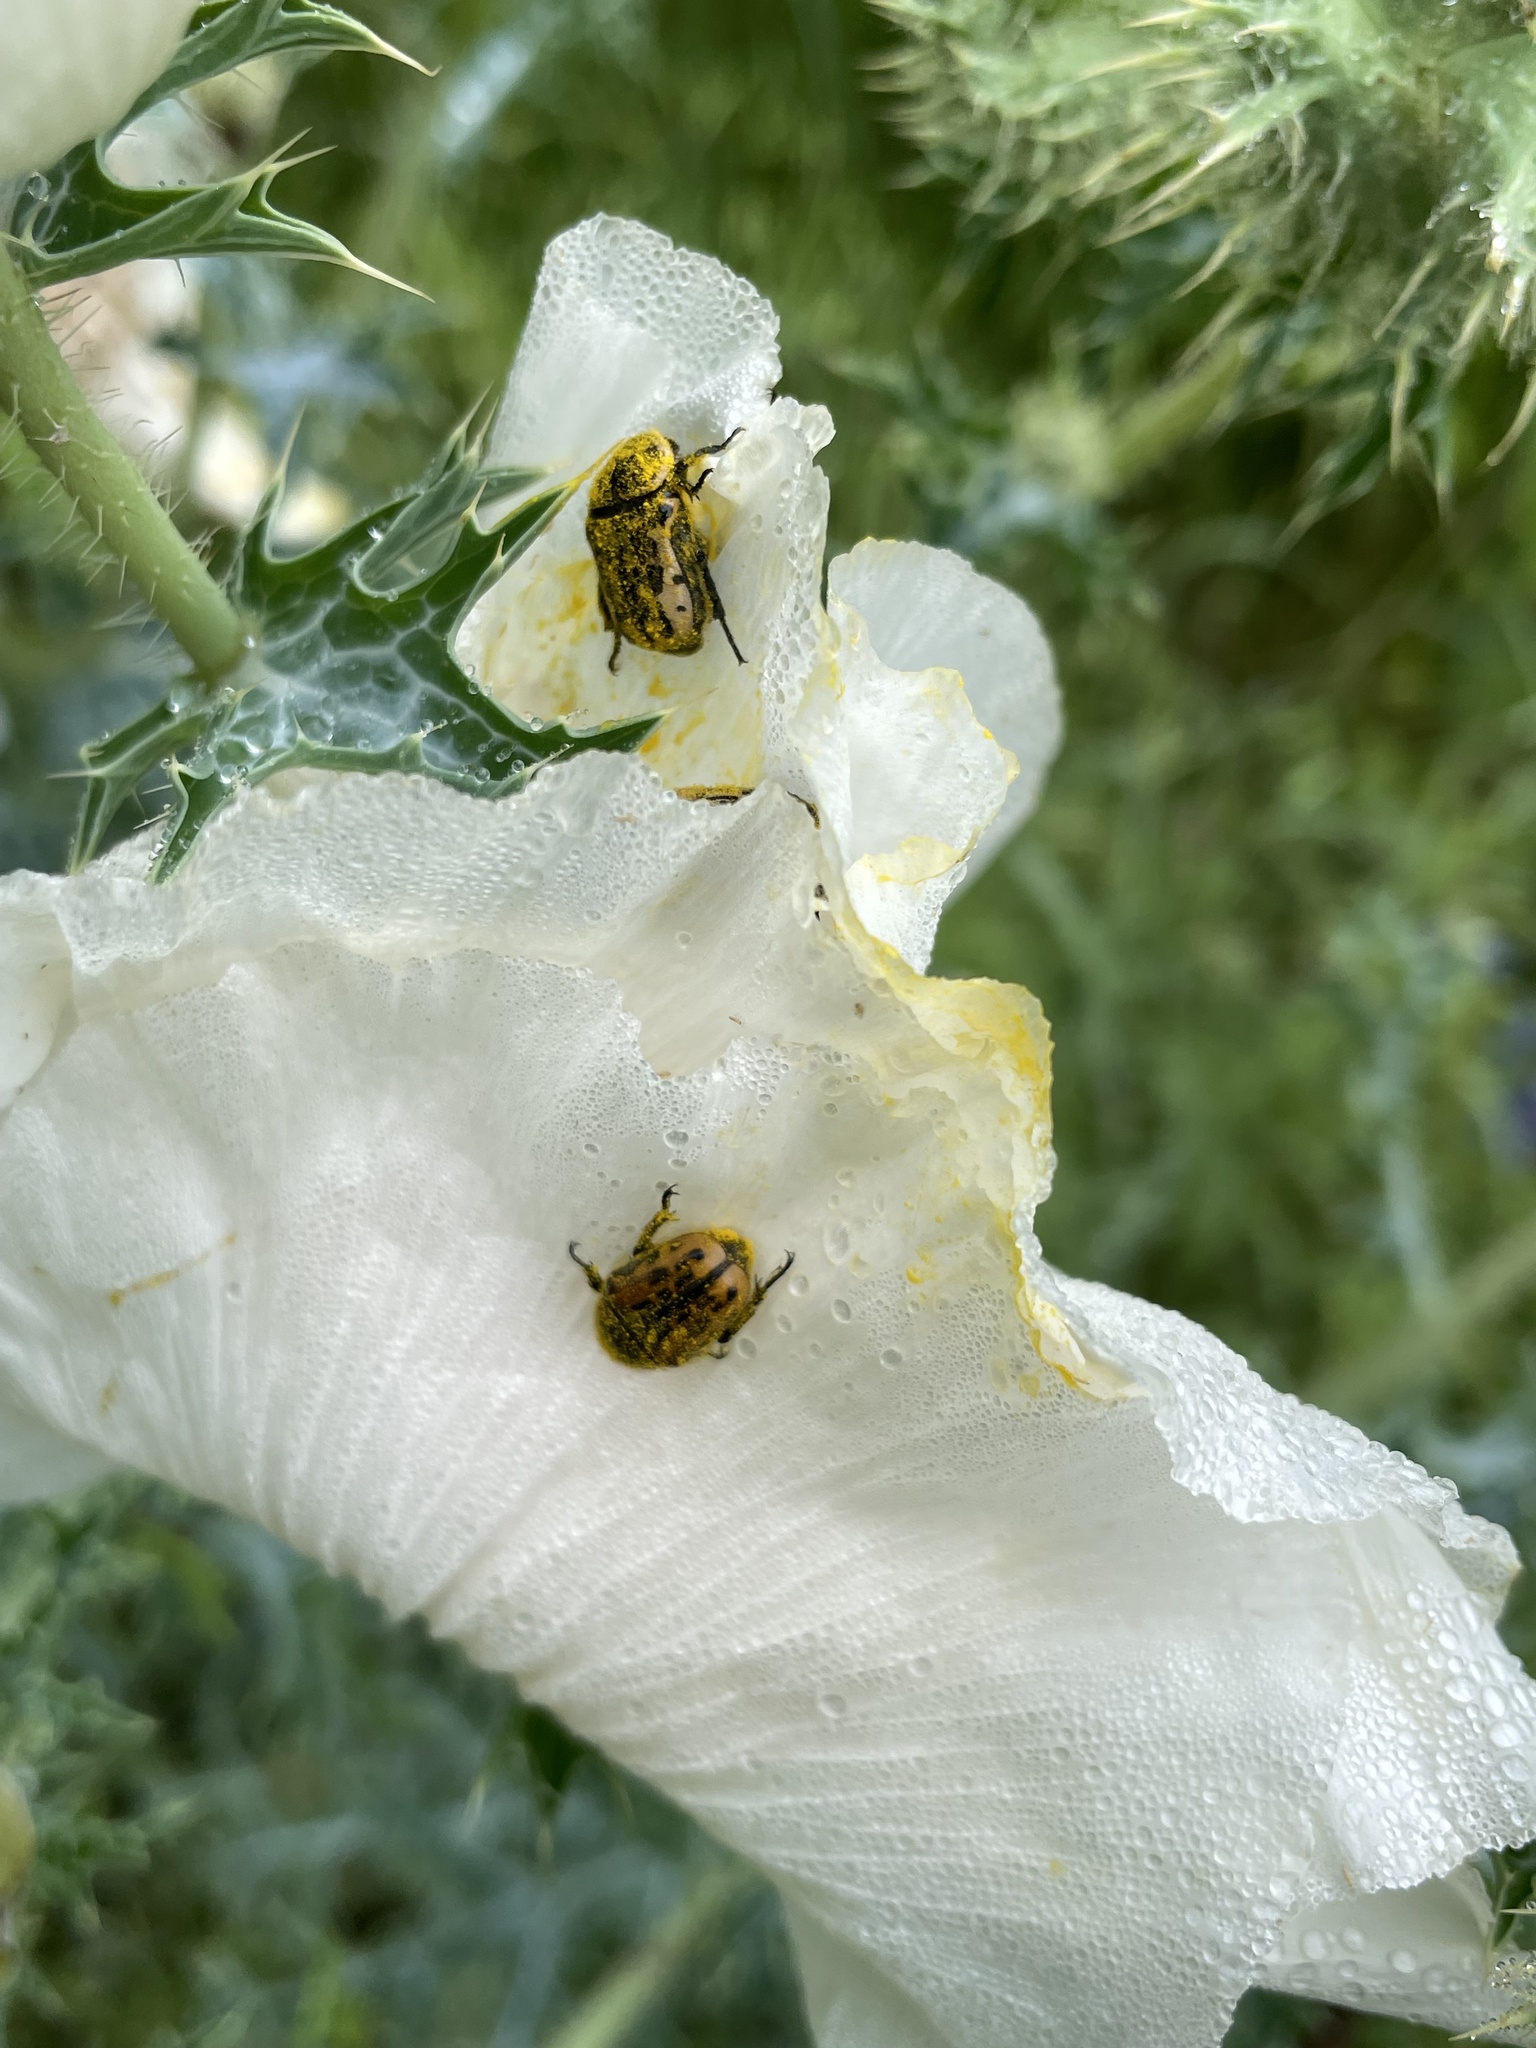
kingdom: Animalia
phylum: Arthropoda
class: Insecta
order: Coleoptera
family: Scarabaeidae
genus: Euphoria
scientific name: Euphoria kernii
